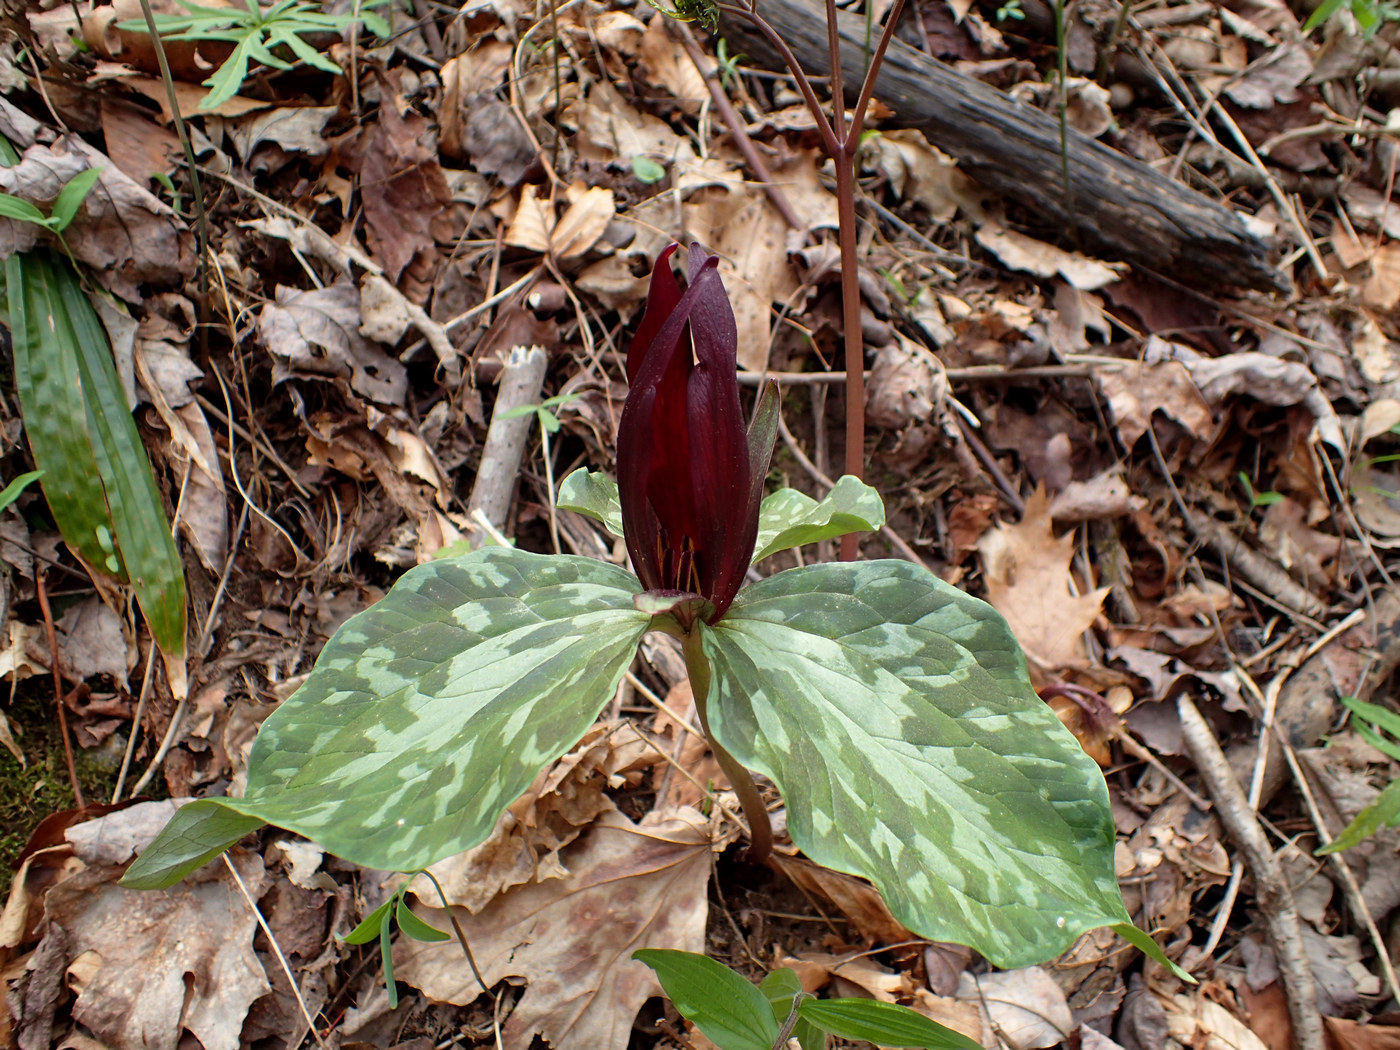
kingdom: Plantae
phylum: Tracheophyta
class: Liliopsida
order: Liliales
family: Melanthiaceae
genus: Trillium
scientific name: Trillium cuneatum
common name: Cuneate trillium
